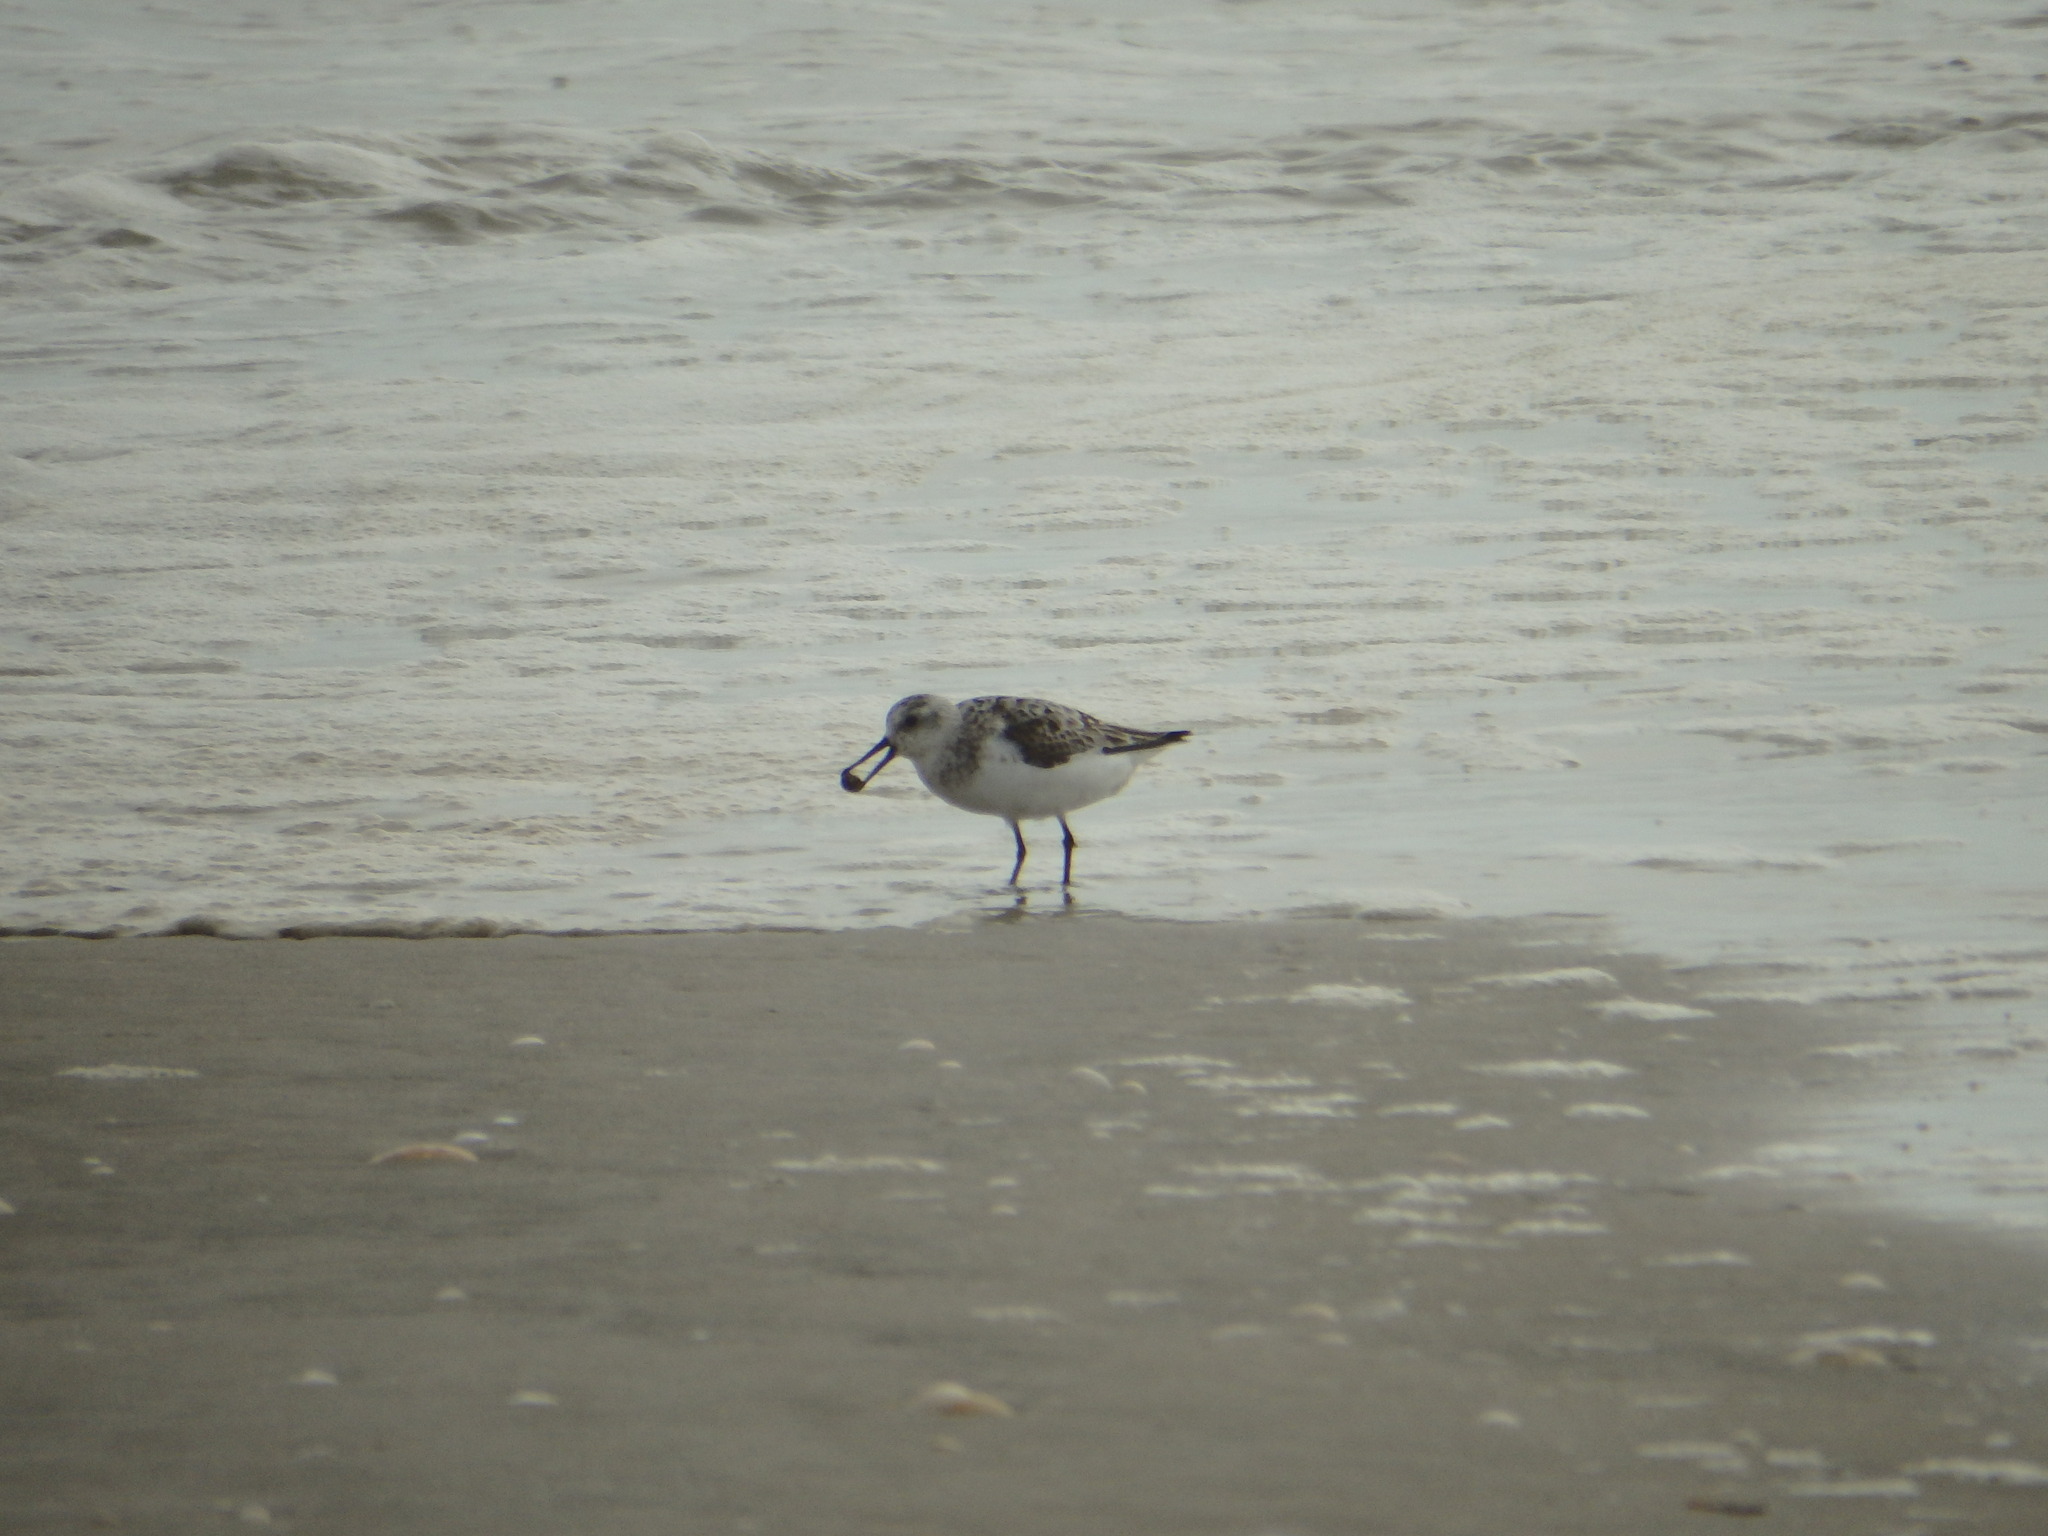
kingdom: Animalia
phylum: Chordata
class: Aves
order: Charadriiformes
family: Scolopacidae
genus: Calidris
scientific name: Calidris alba
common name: Sanderling
